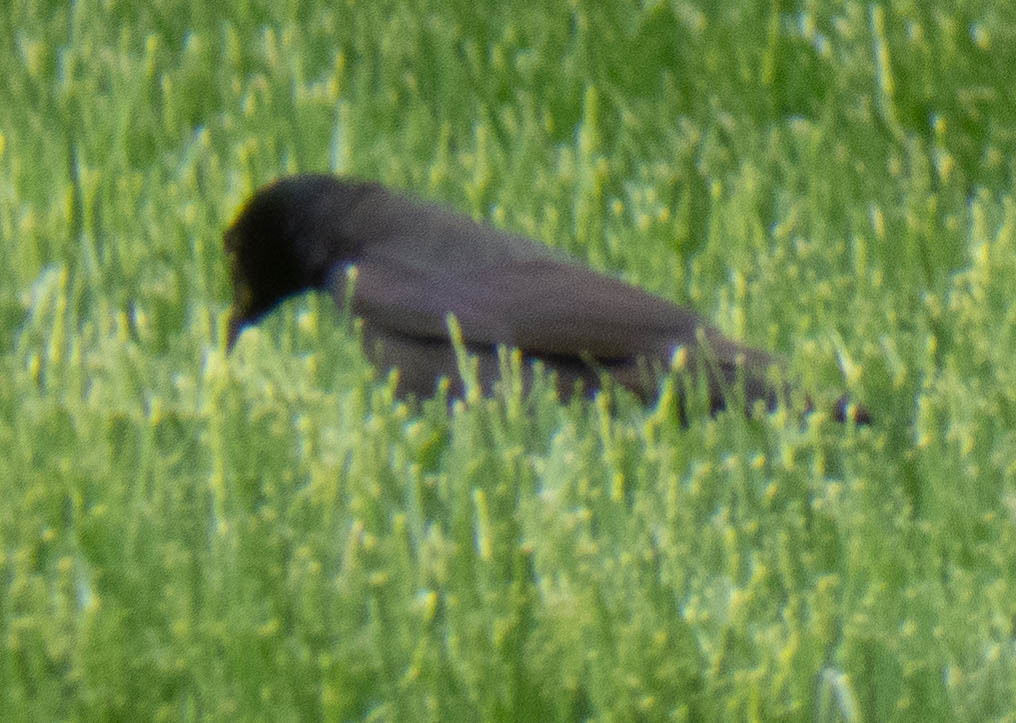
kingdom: Animalia
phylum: Chordata
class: Aves
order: Passeriformes
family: Icteridae
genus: Quiscalus
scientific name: Quiscalus quiscula
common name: Common grackle
